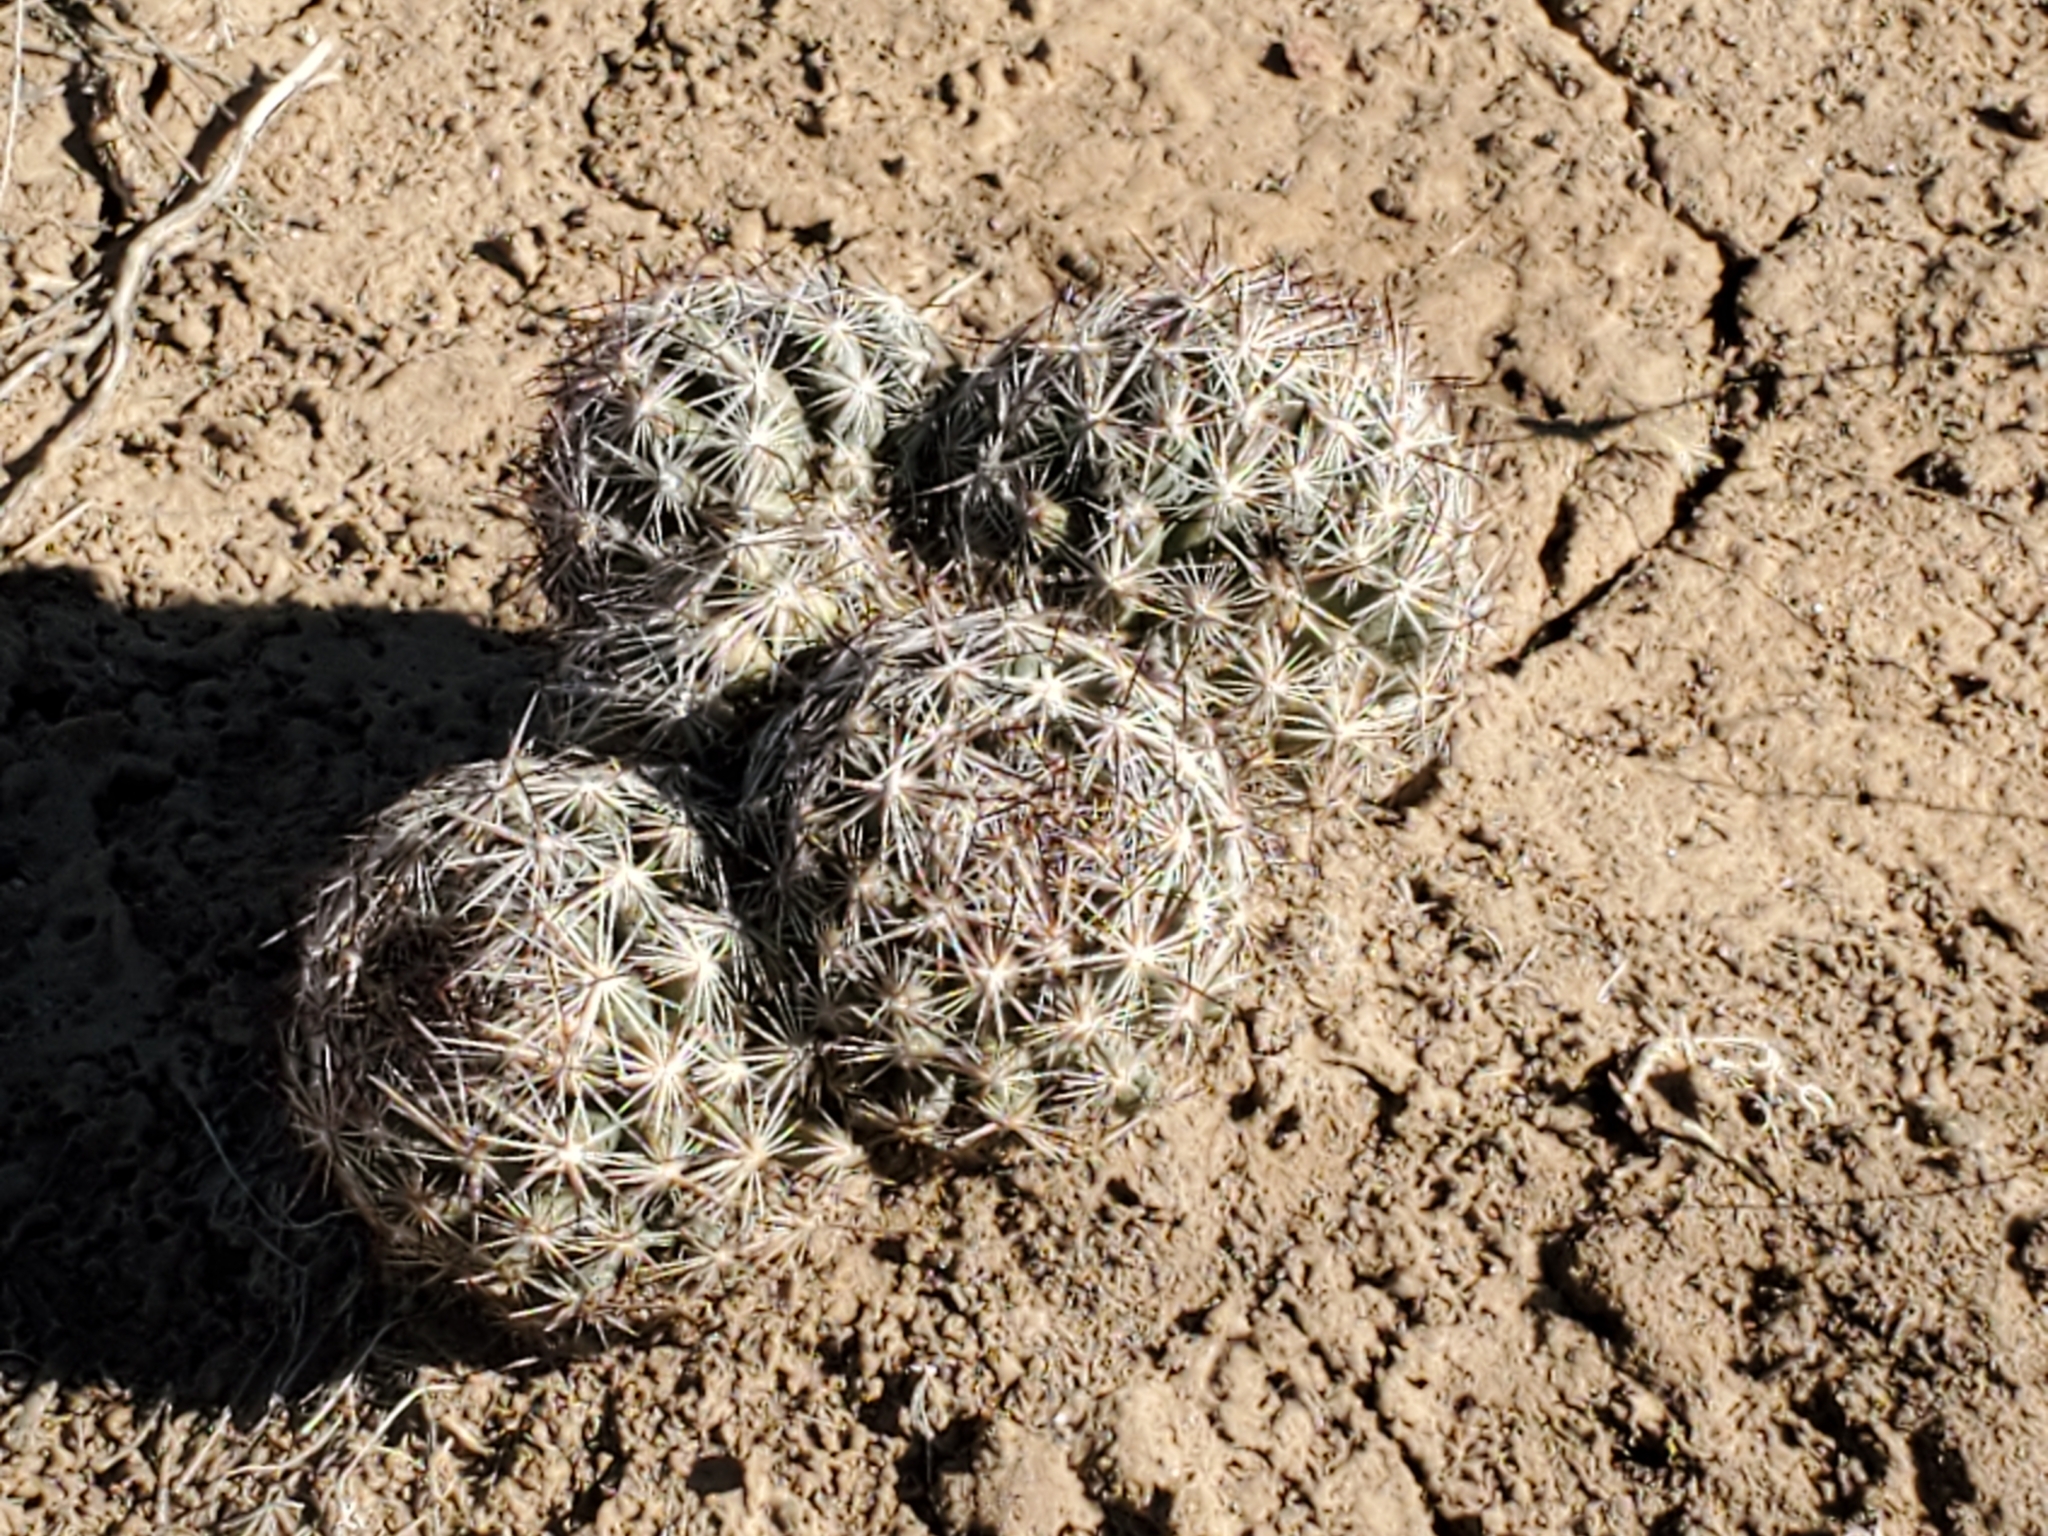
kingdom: Plantae
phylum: Tracheophyta
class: Magnoliopsida
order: Caryophyllales
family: Cactaceae
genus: Pelecyphora
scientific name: Pelecyphora vivipara
